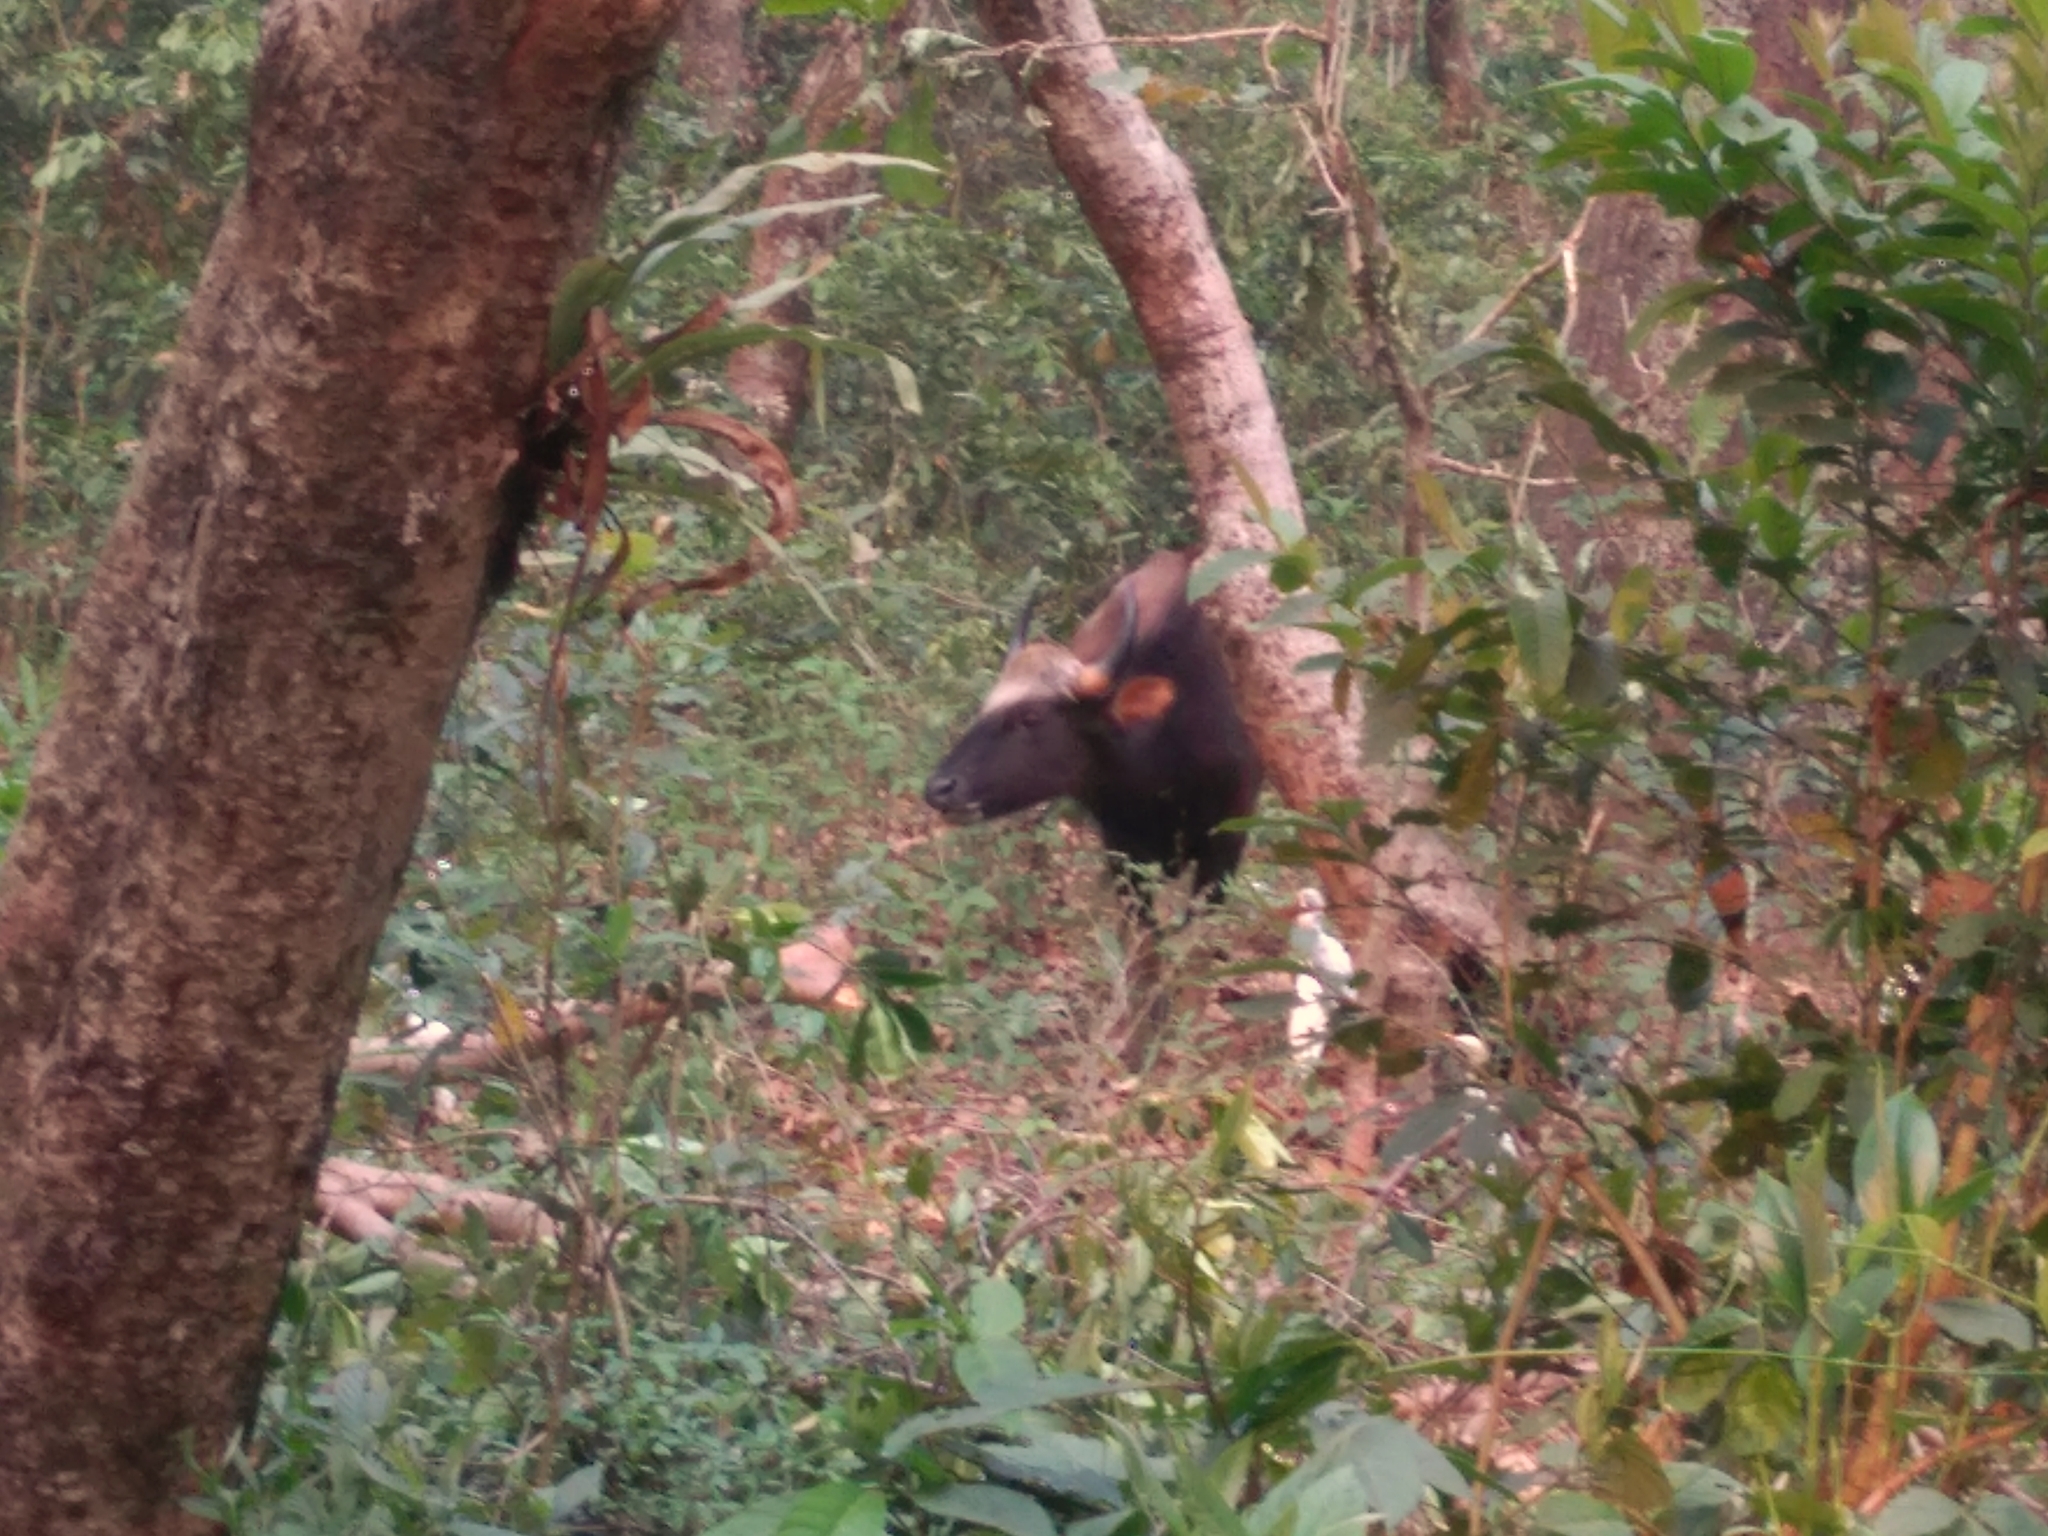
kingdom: Animalia
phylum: Chordata
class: Mammalia
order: Artiodactyla
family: Bovidae
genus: Bos
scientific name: Bos frontalis
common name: Gaur
